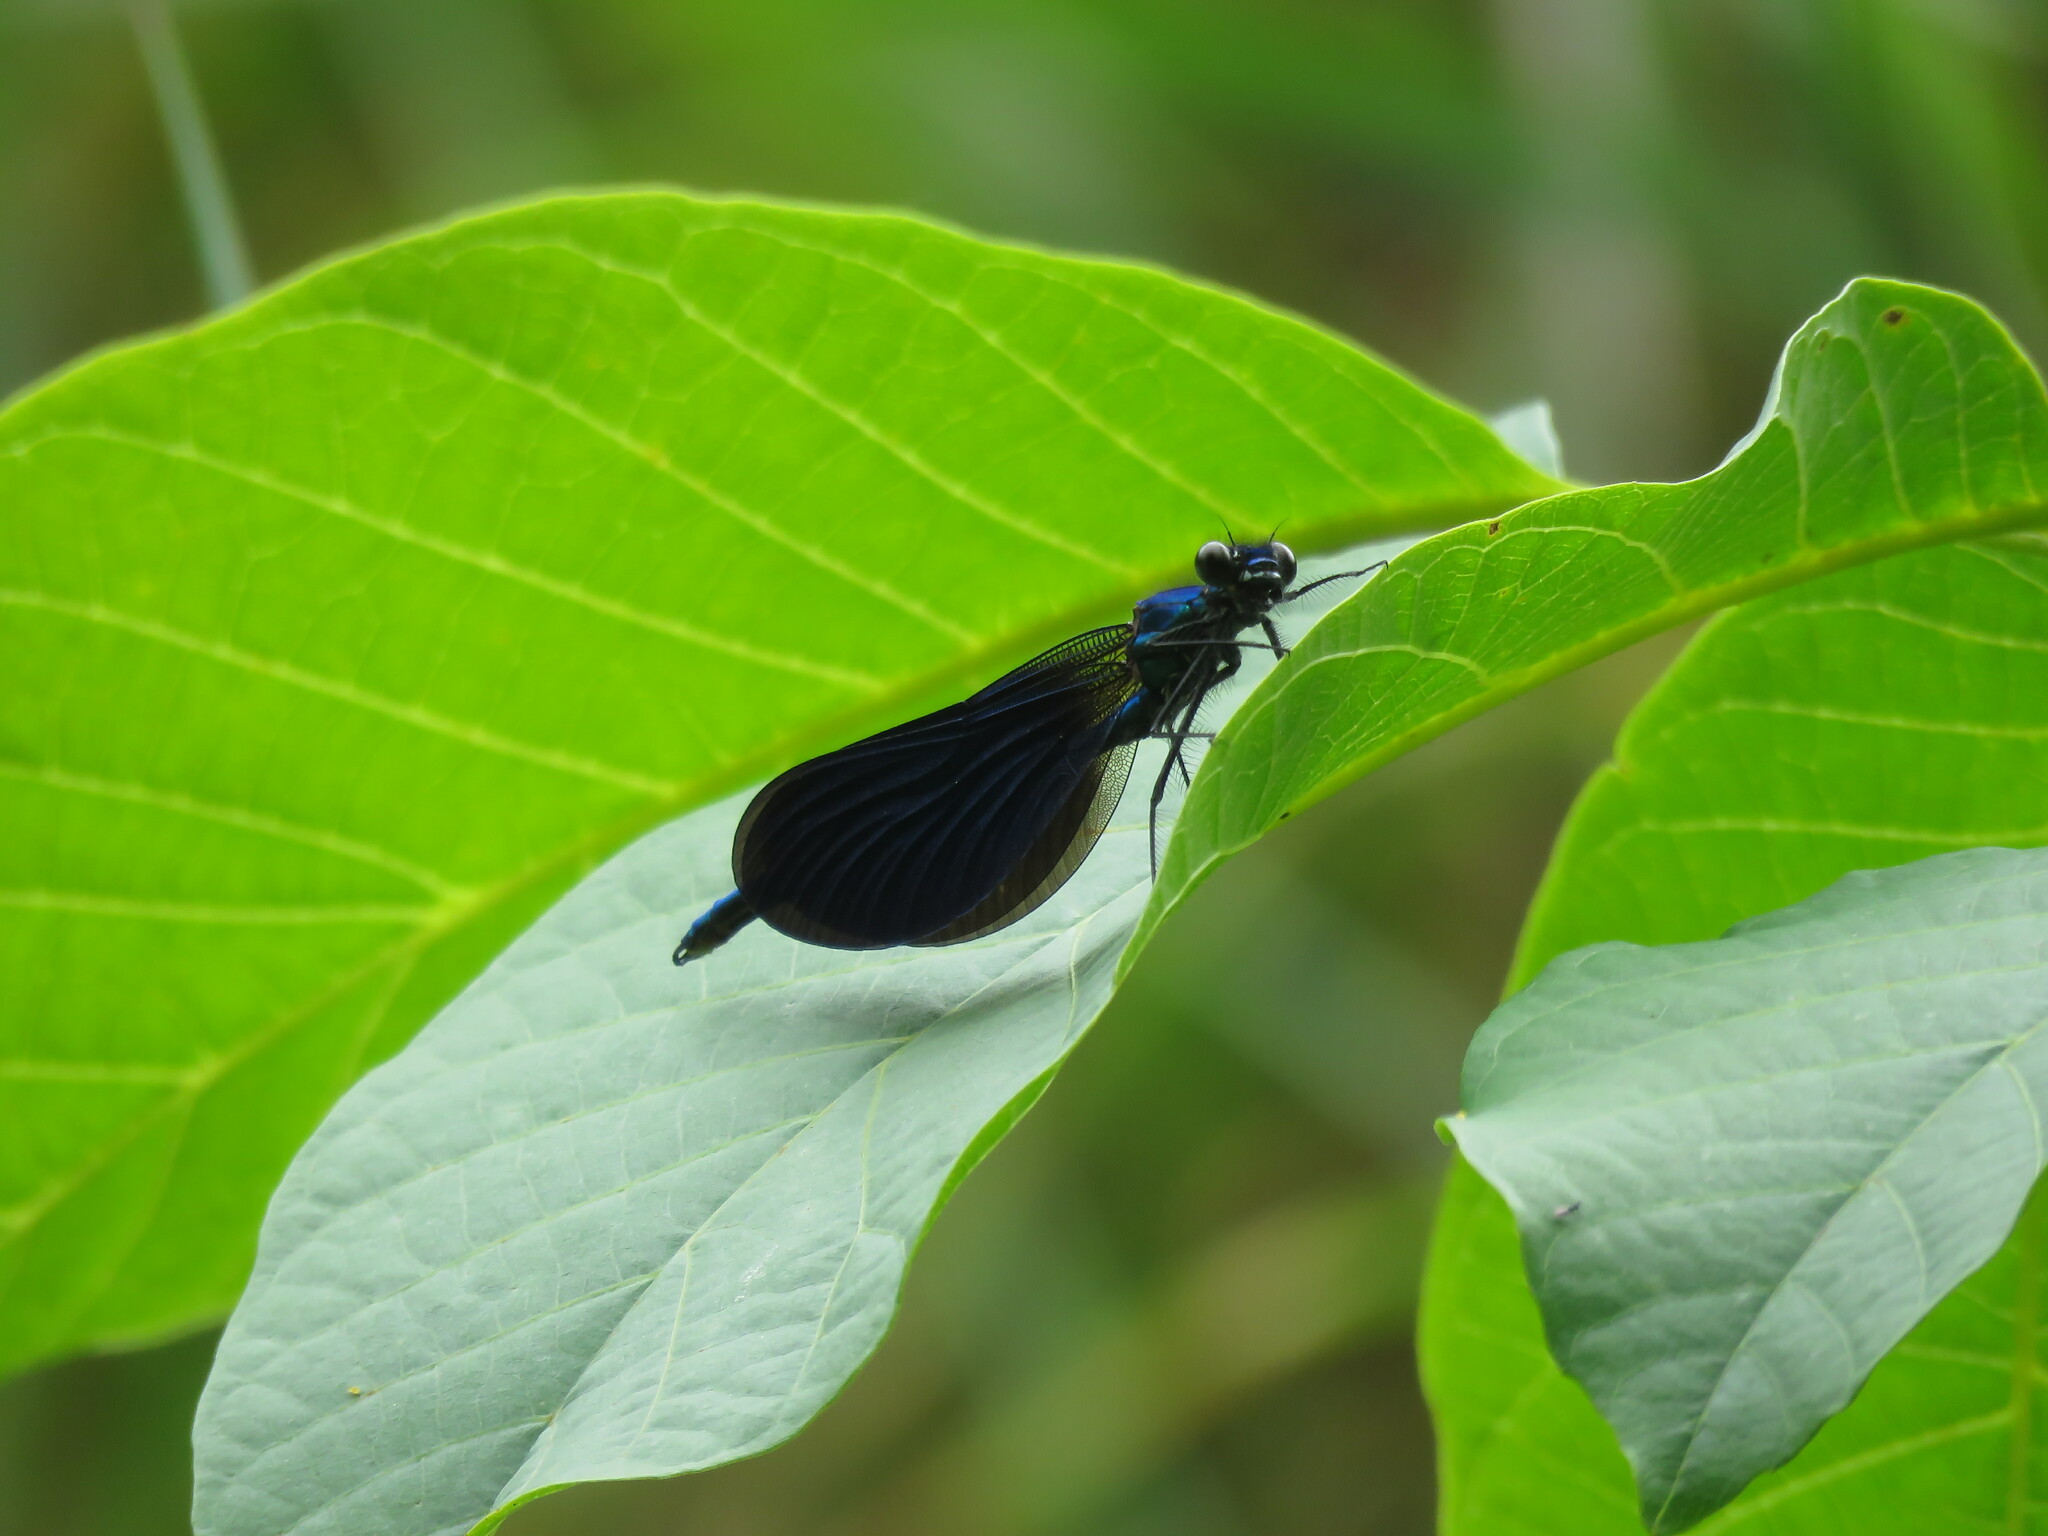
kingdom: Animalia
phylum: Arthropoda
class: Insecta
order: Odonata
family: Calopterygidae
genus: Calopteryx
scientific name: Calopteryx virgo
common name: Beautiful demoiselle
